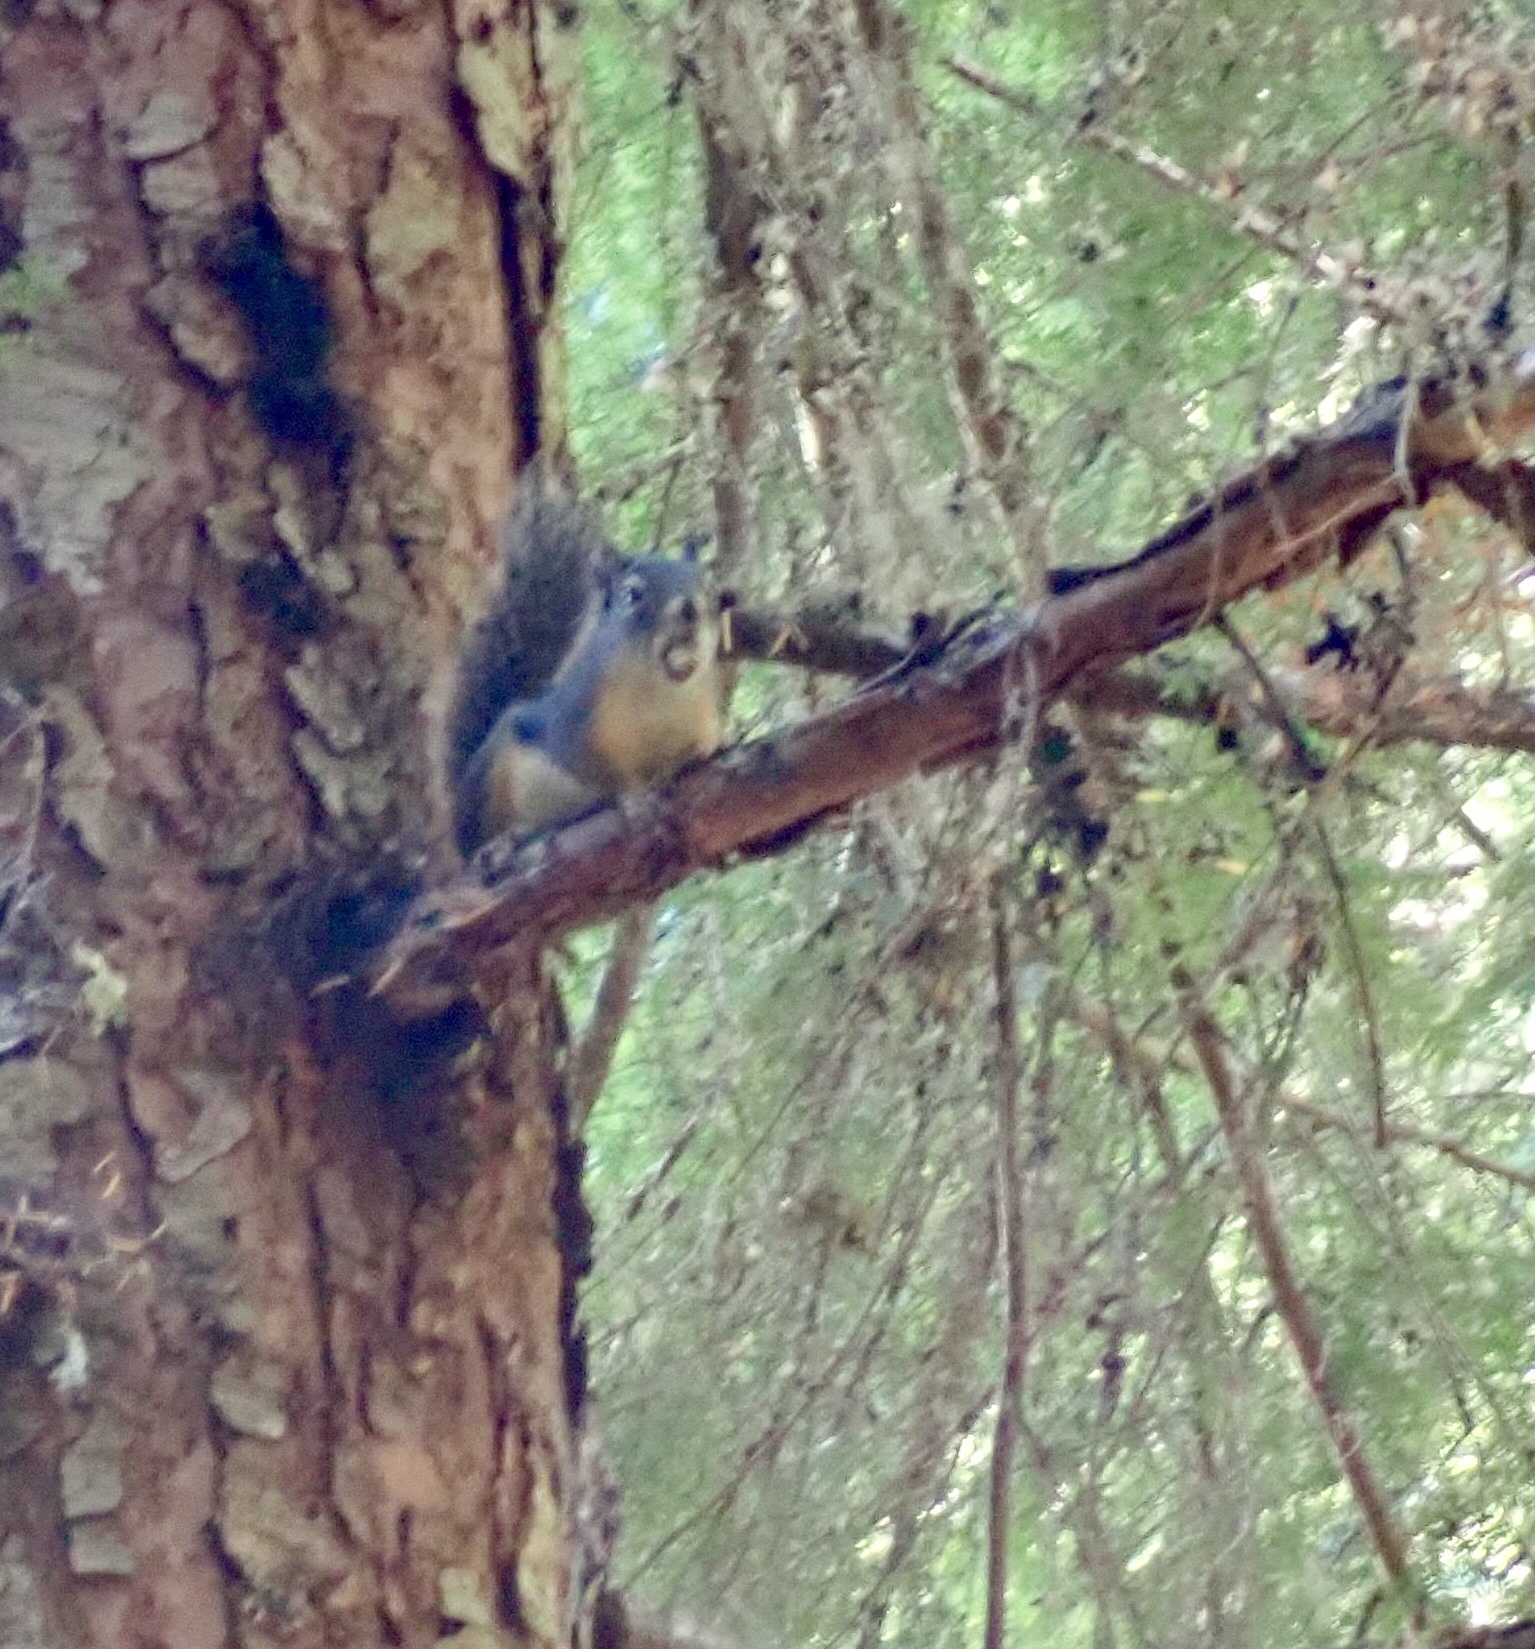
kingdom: Animalia
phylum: Chordata
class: Mammalia
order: Rodentia
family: Sciuridae
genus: Tamiasciurus
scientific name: Tamiasciurus douglasii
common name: Douglas's squirrel
